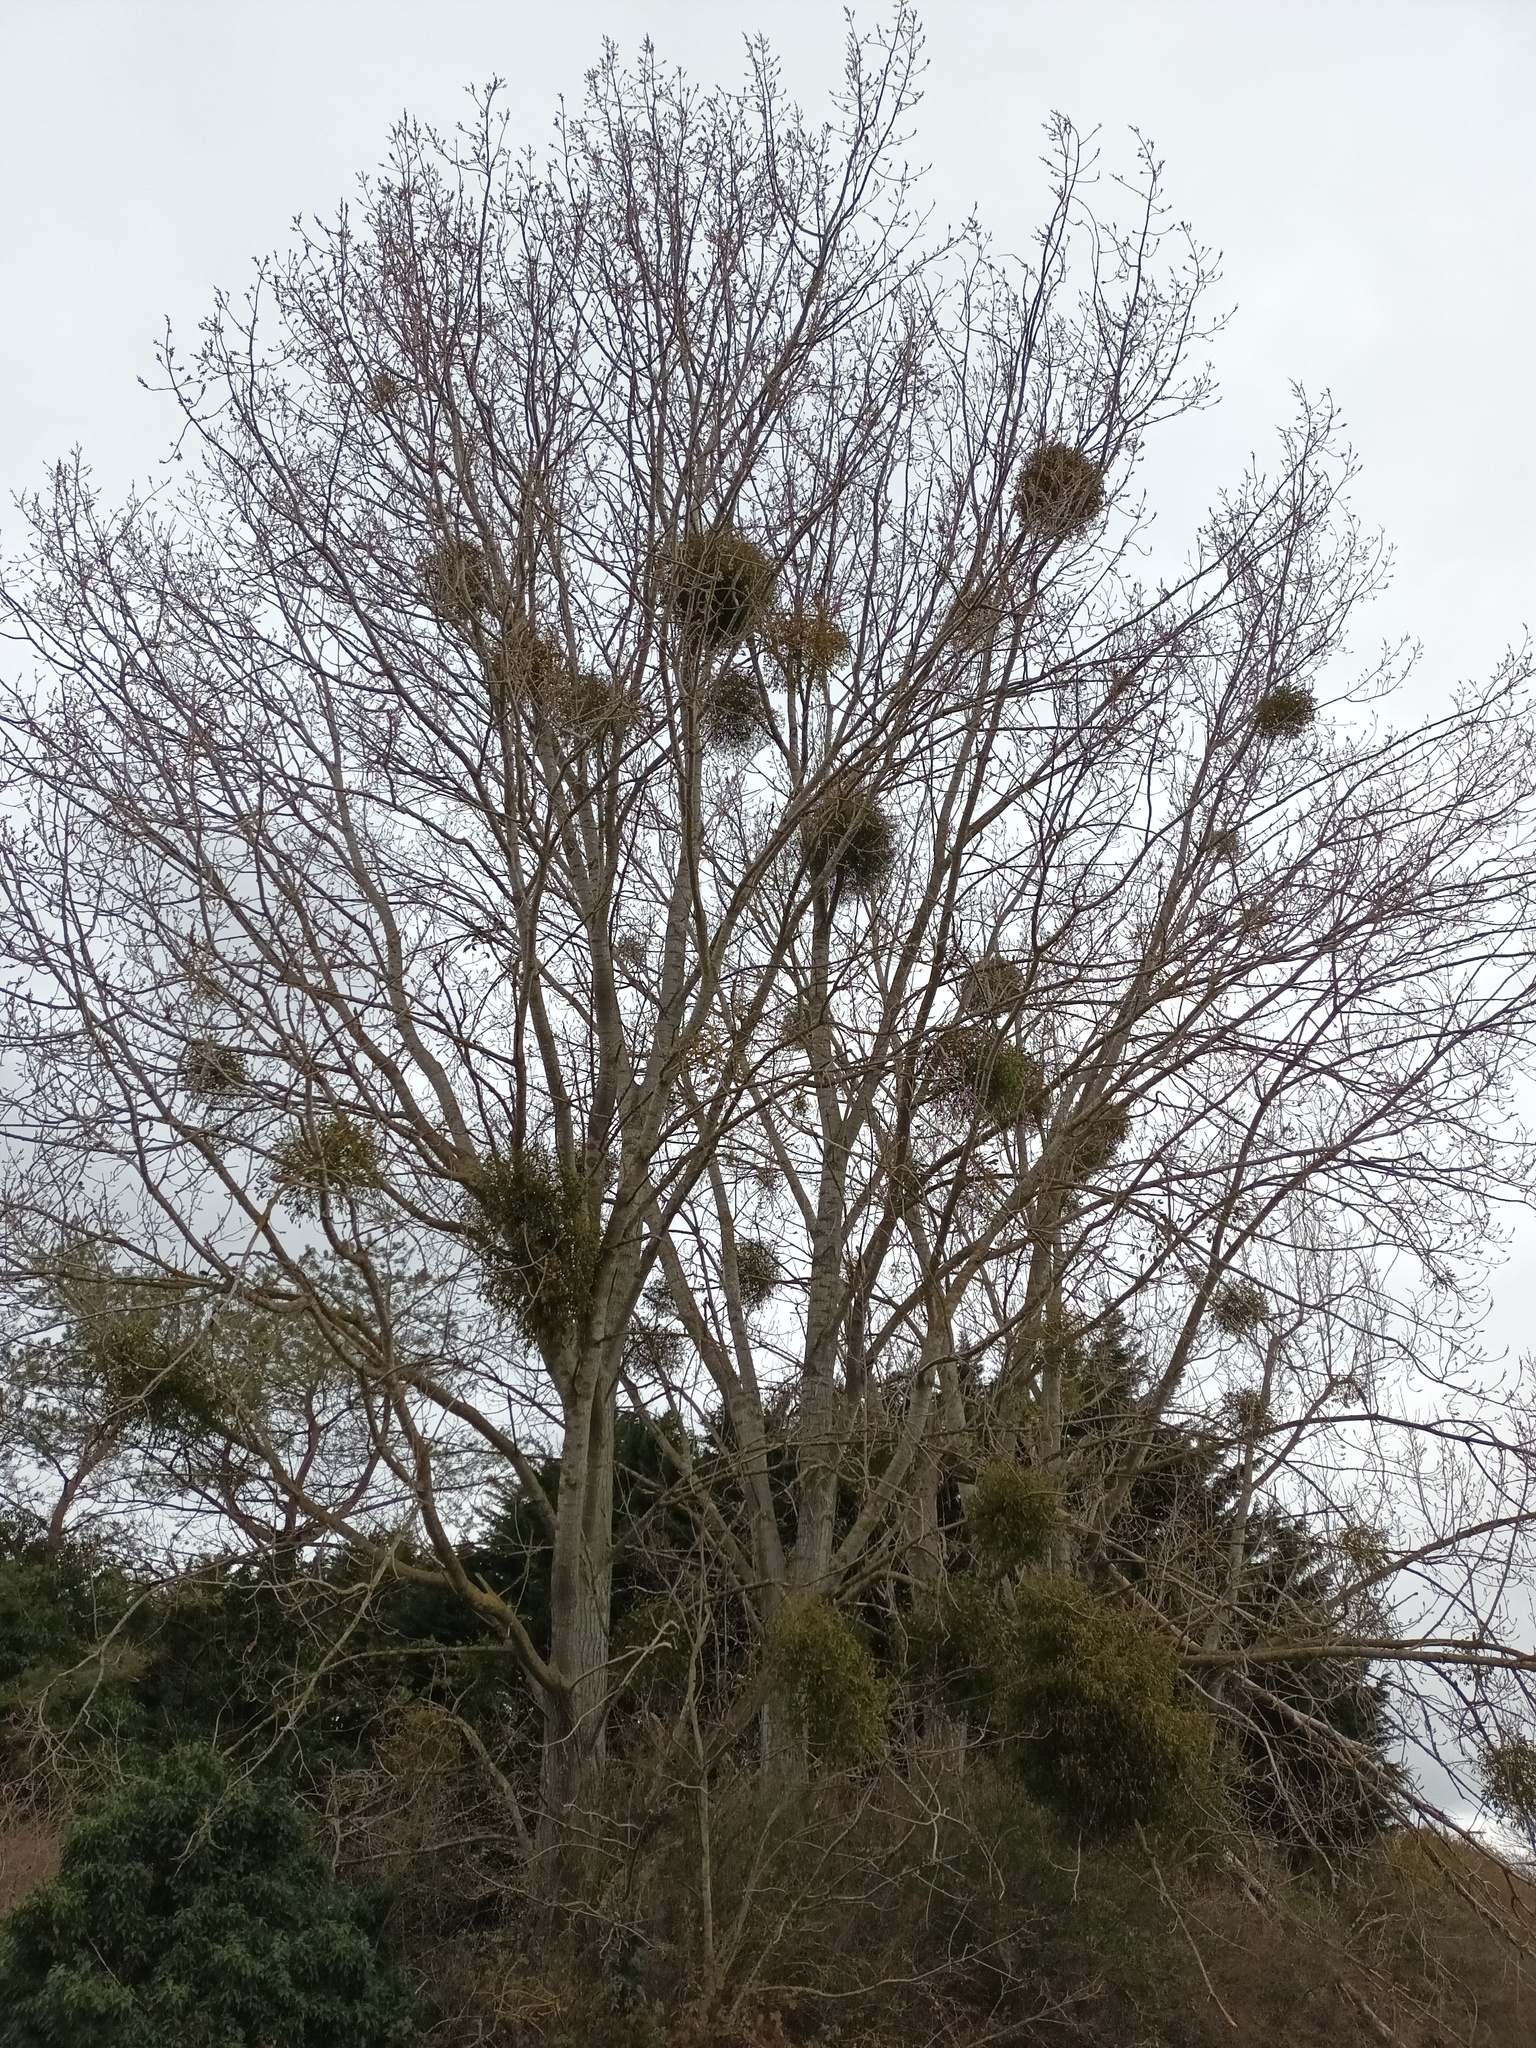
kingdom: Plantae
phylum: Tracheophyta
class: Magnoliopsida
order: Santalales
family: Viscaceae
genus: Viscum
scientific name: Viscum album
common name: Mistletoe
